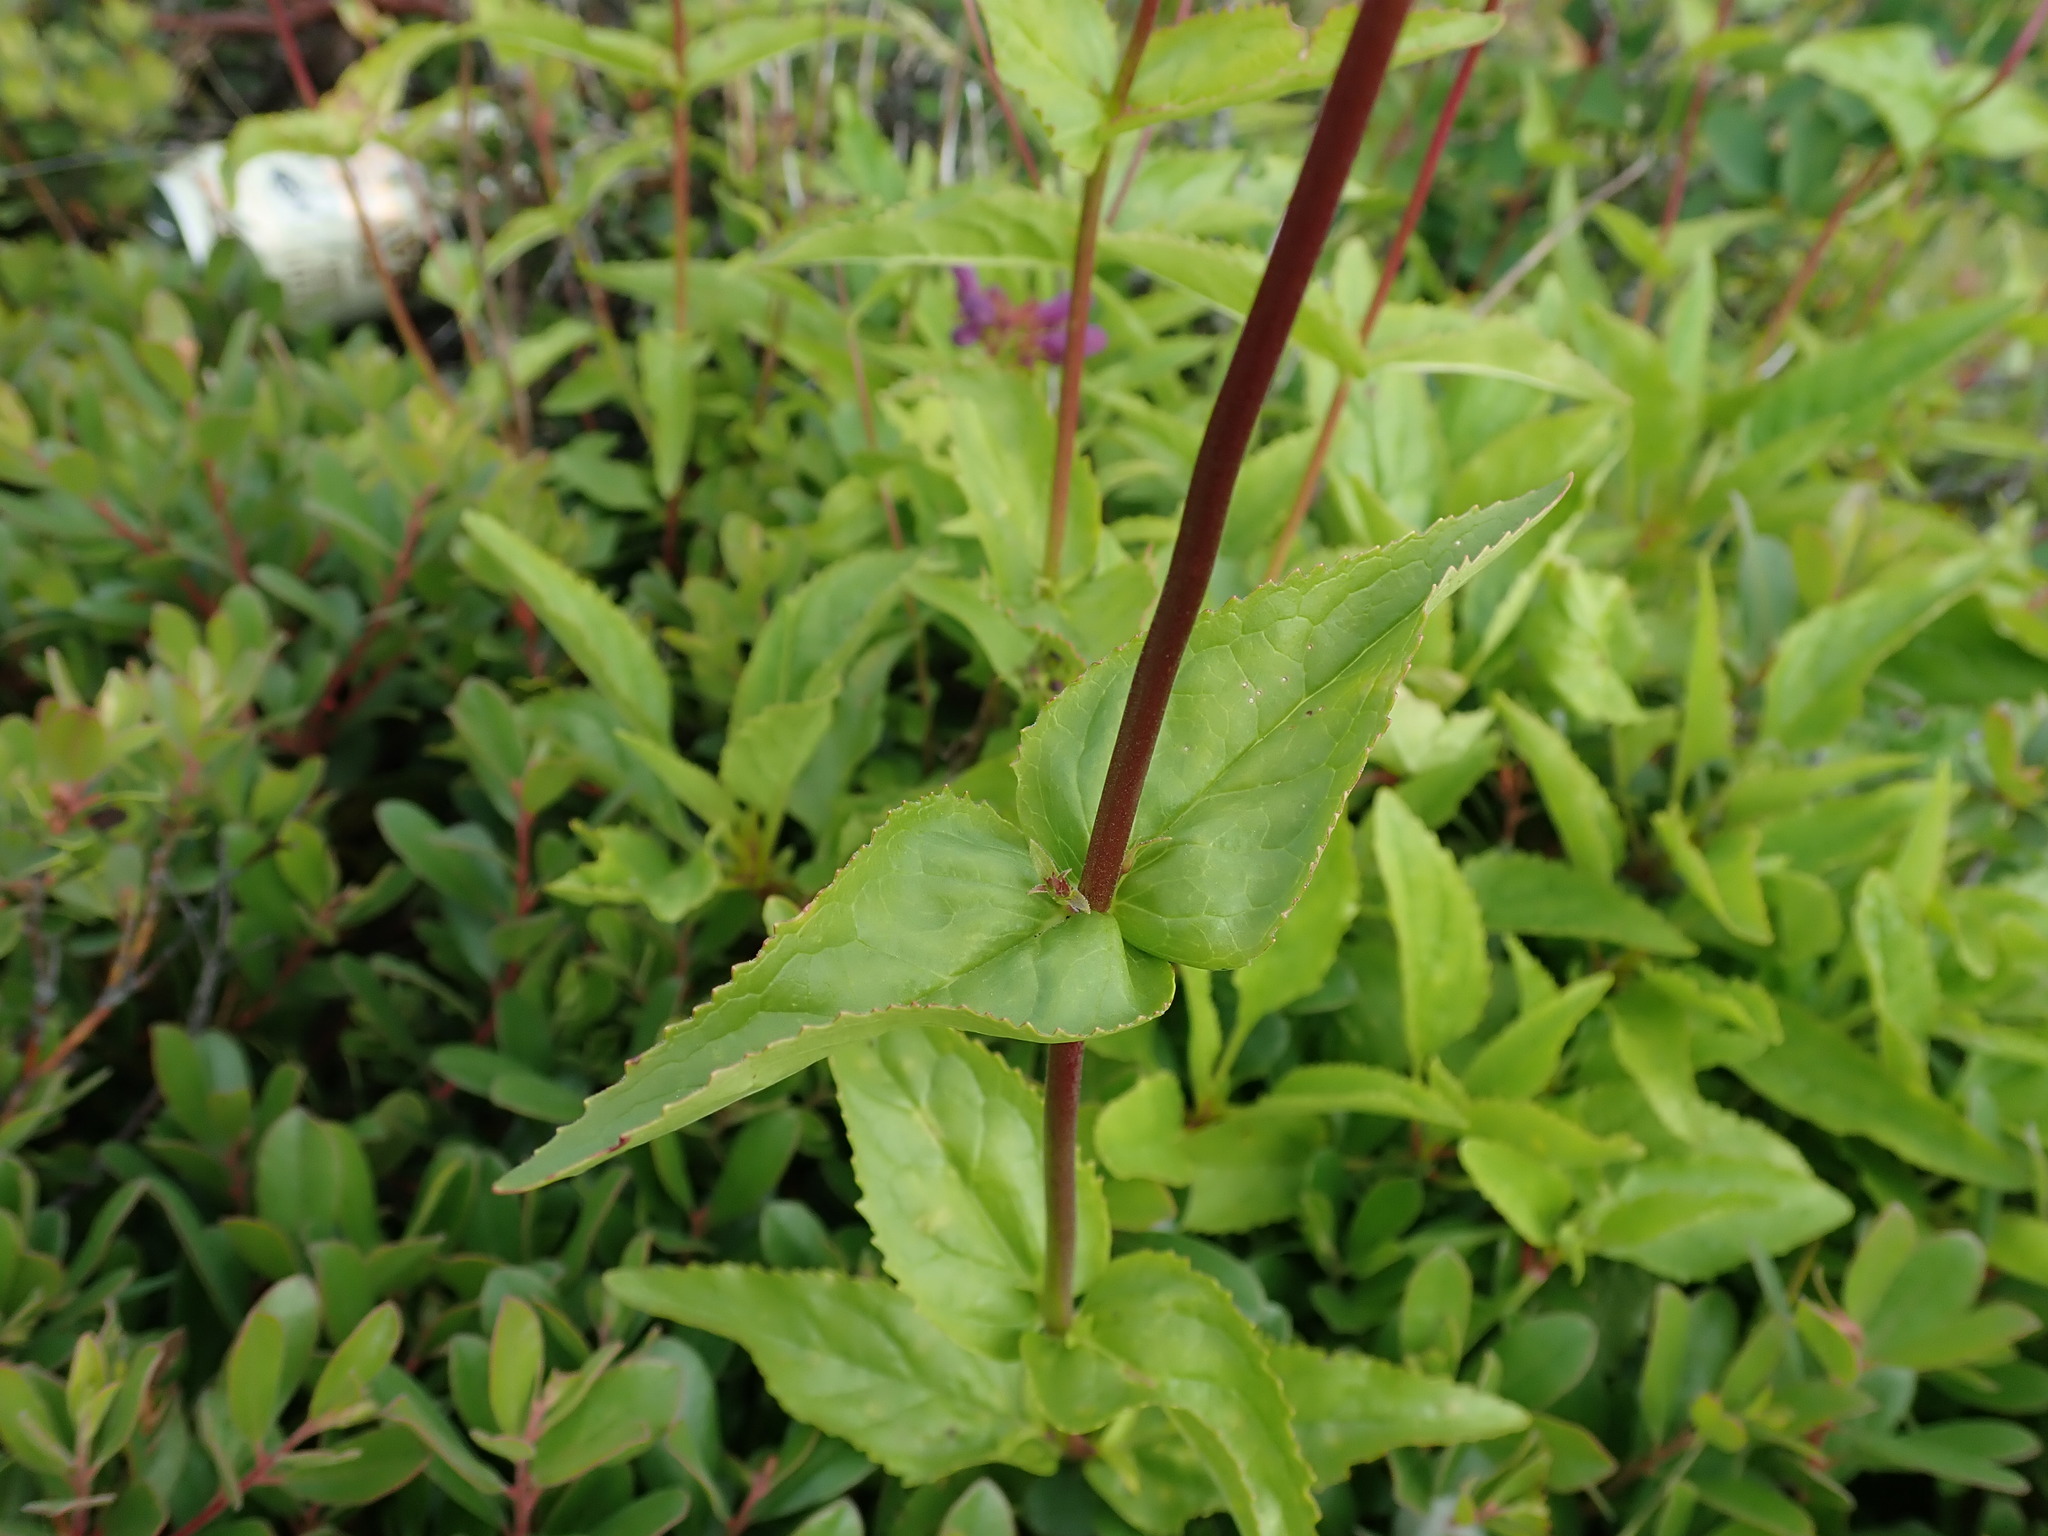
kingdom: Plantae
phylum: Tracheophyta
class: Magnoliopsida
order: Lamiales
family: Plantaginaceae
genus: Penstemon
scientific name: Penstemon serrulatus
